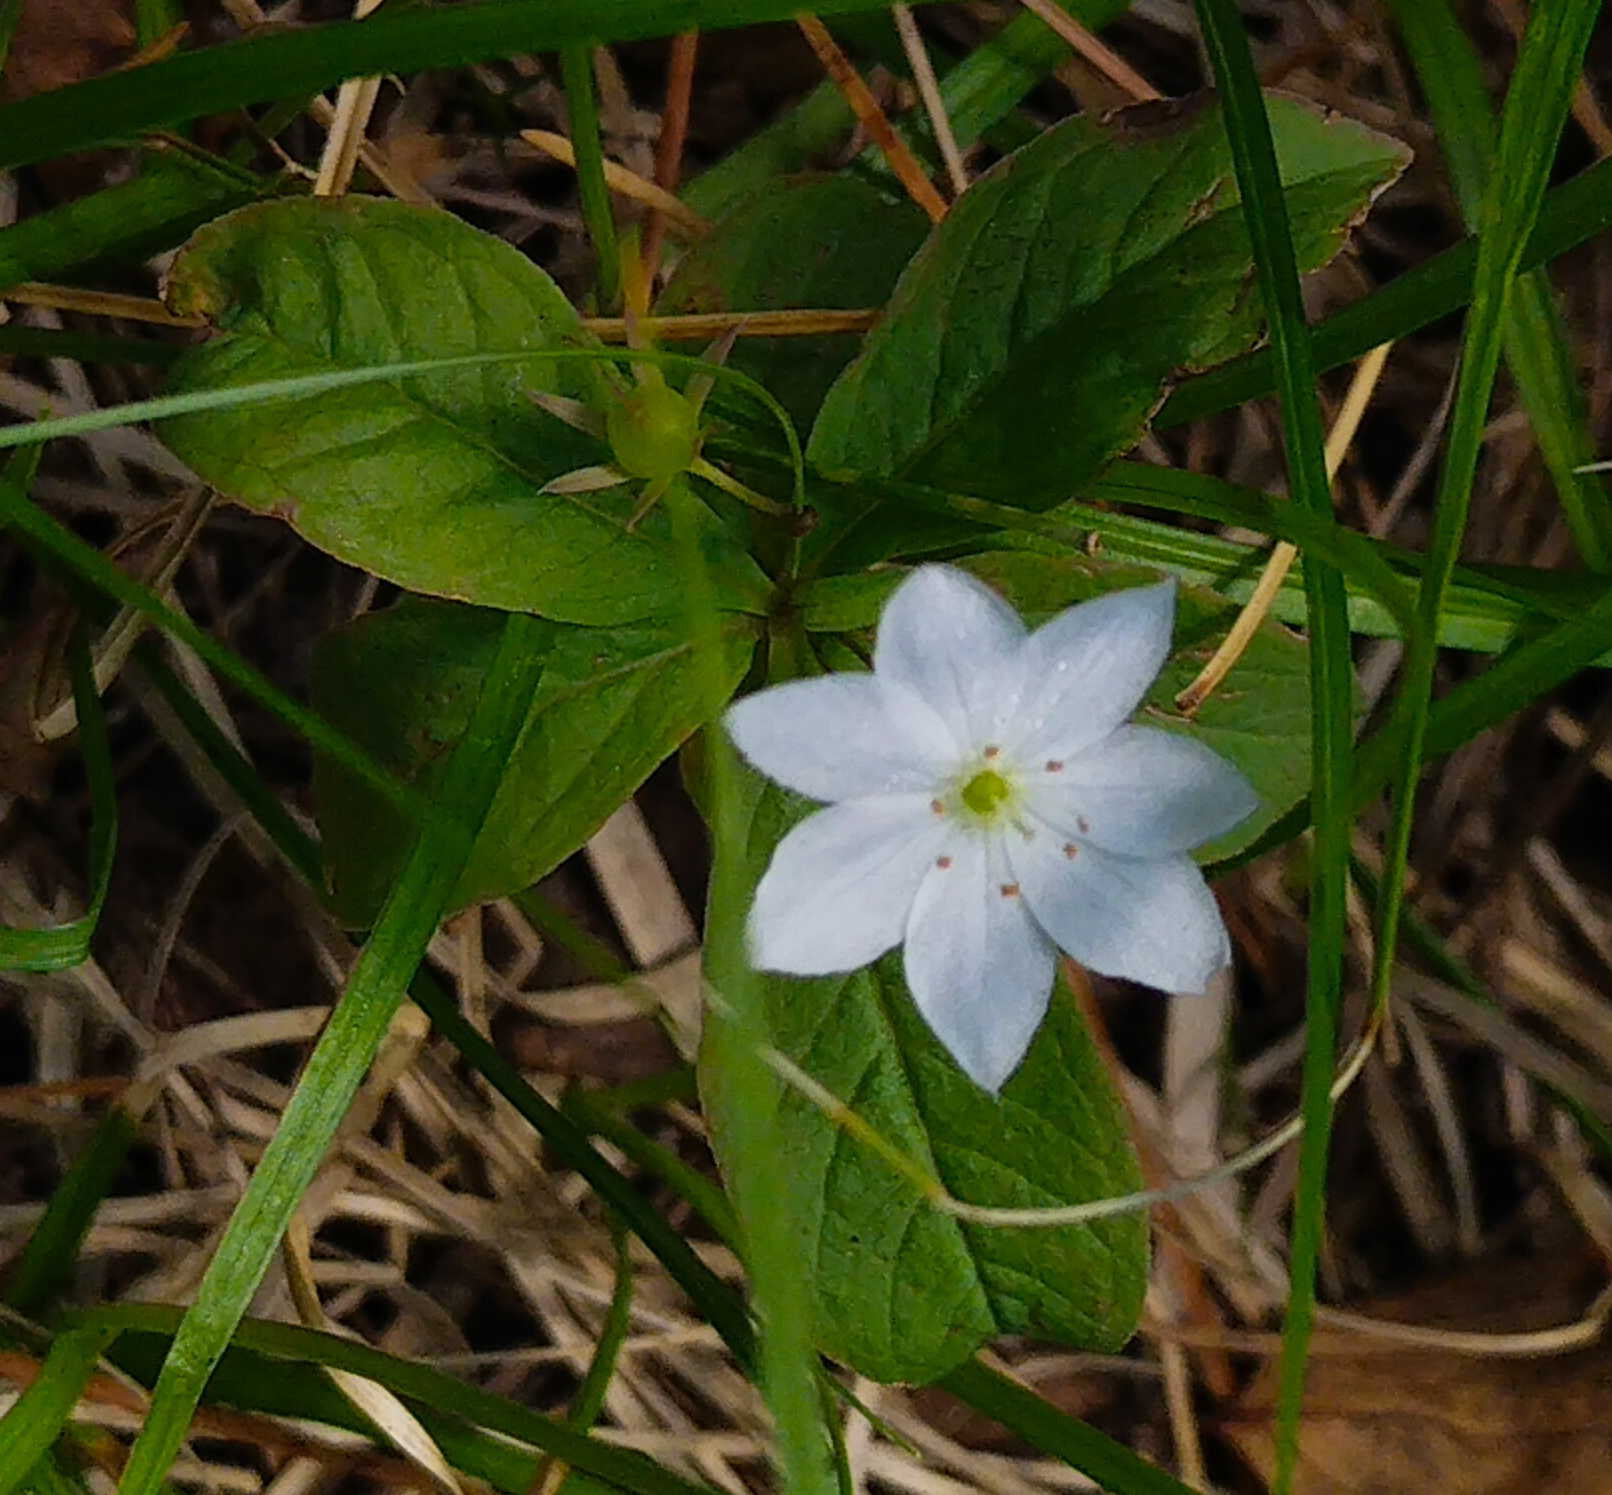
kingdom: Plantae
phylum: Tracheophyta
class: Magnoliopsida
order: Ericales
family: Primulaceae
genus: Lysimachia
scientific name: Lysimachia europaea
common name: Arctic starflower
